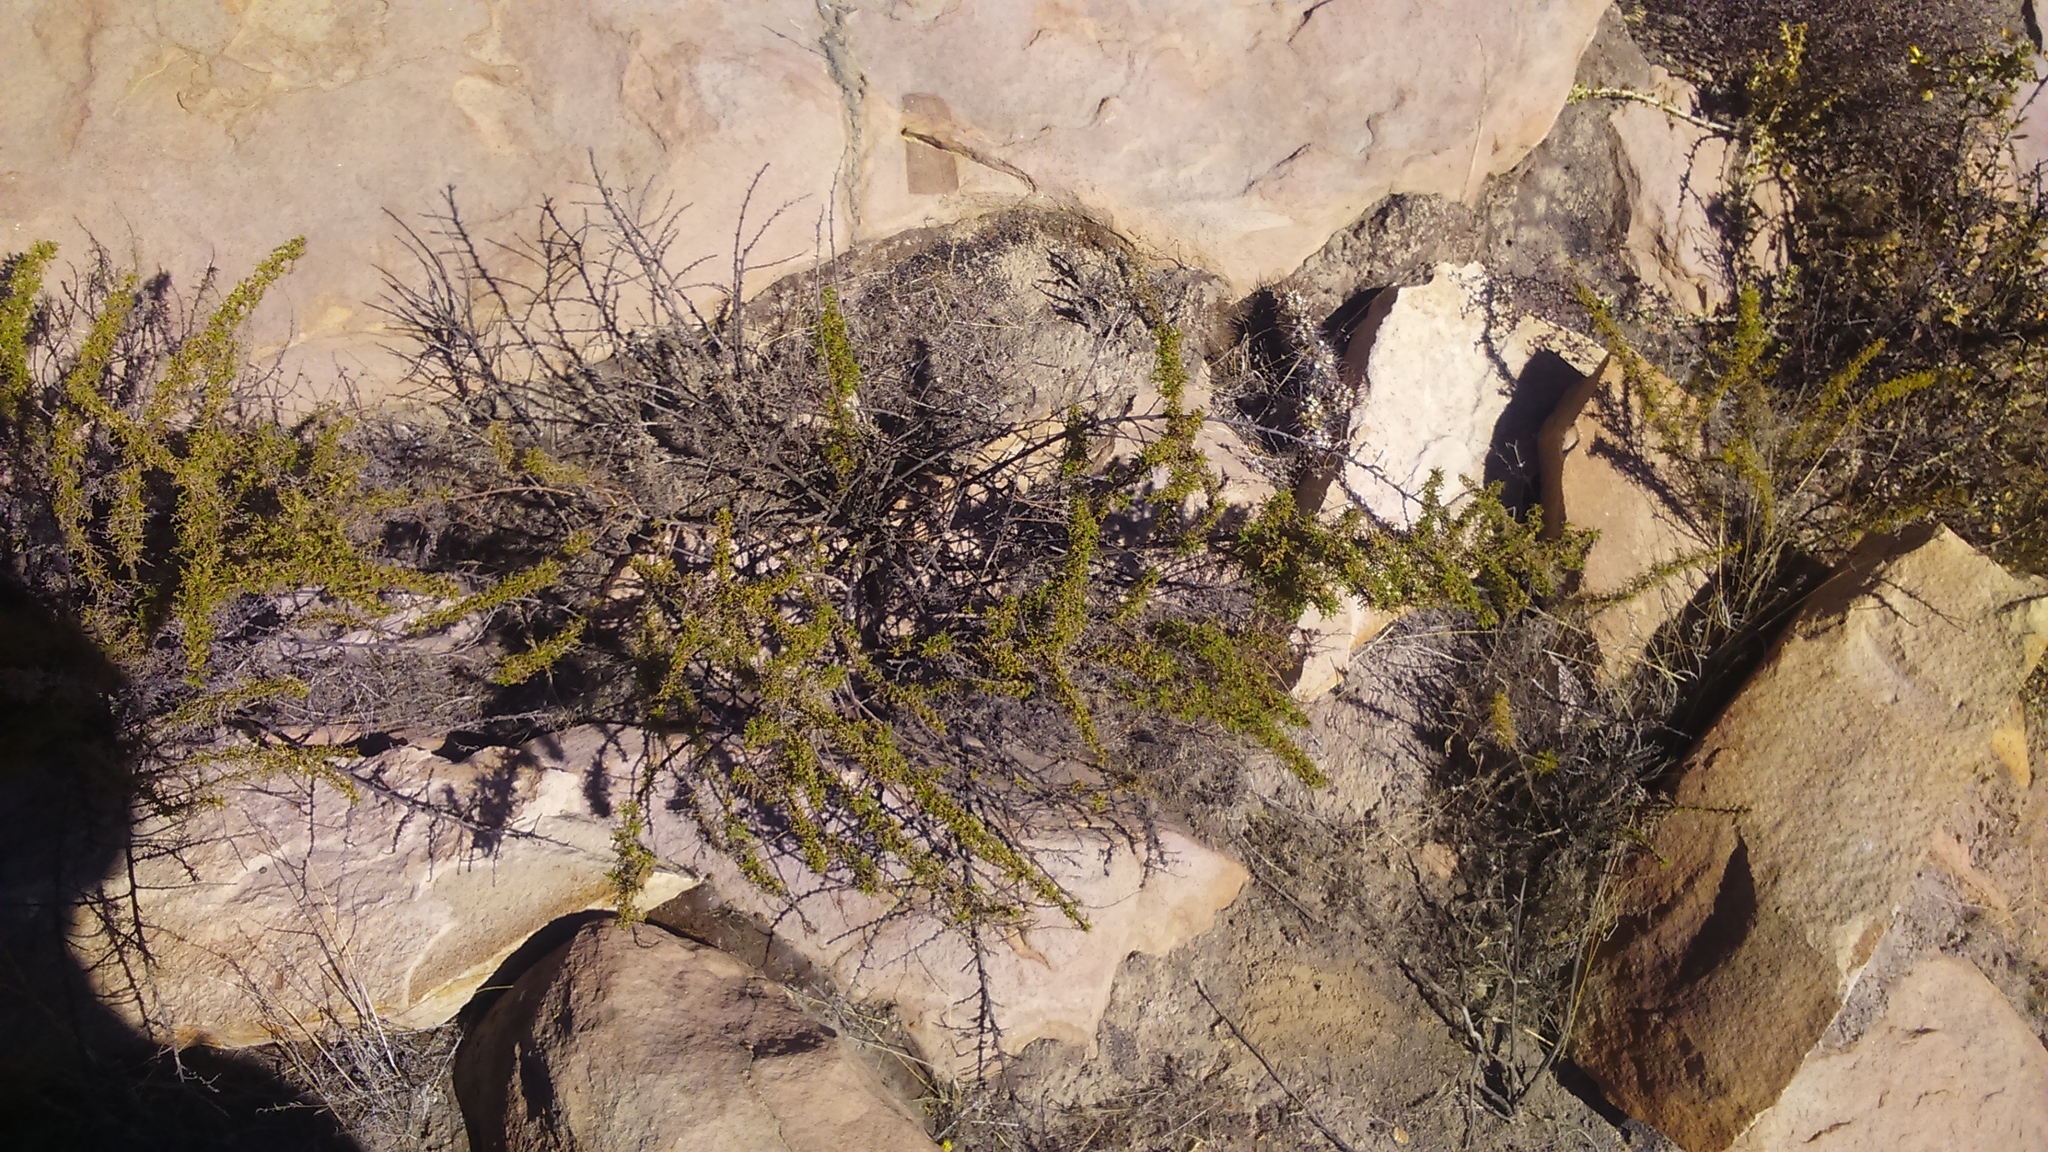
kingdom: Plantae
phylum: Tracheophyta
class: Magnoliopsida
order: Asterales
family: Asteraceae
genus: Ambrosia
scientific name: Ambrosia artemisioides
